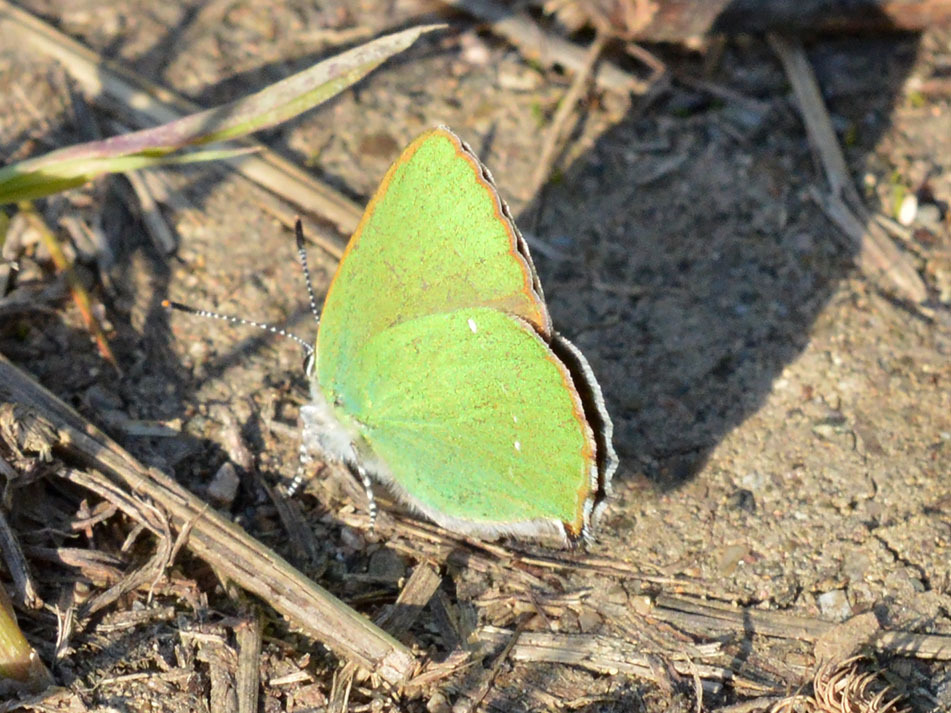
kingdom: Animalia
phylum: Arthropoda
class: Insecta
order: Lepidoptera
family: Lycaenidae
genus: Callophrys
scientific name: Callophrys rubi
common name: Green hairstreak
